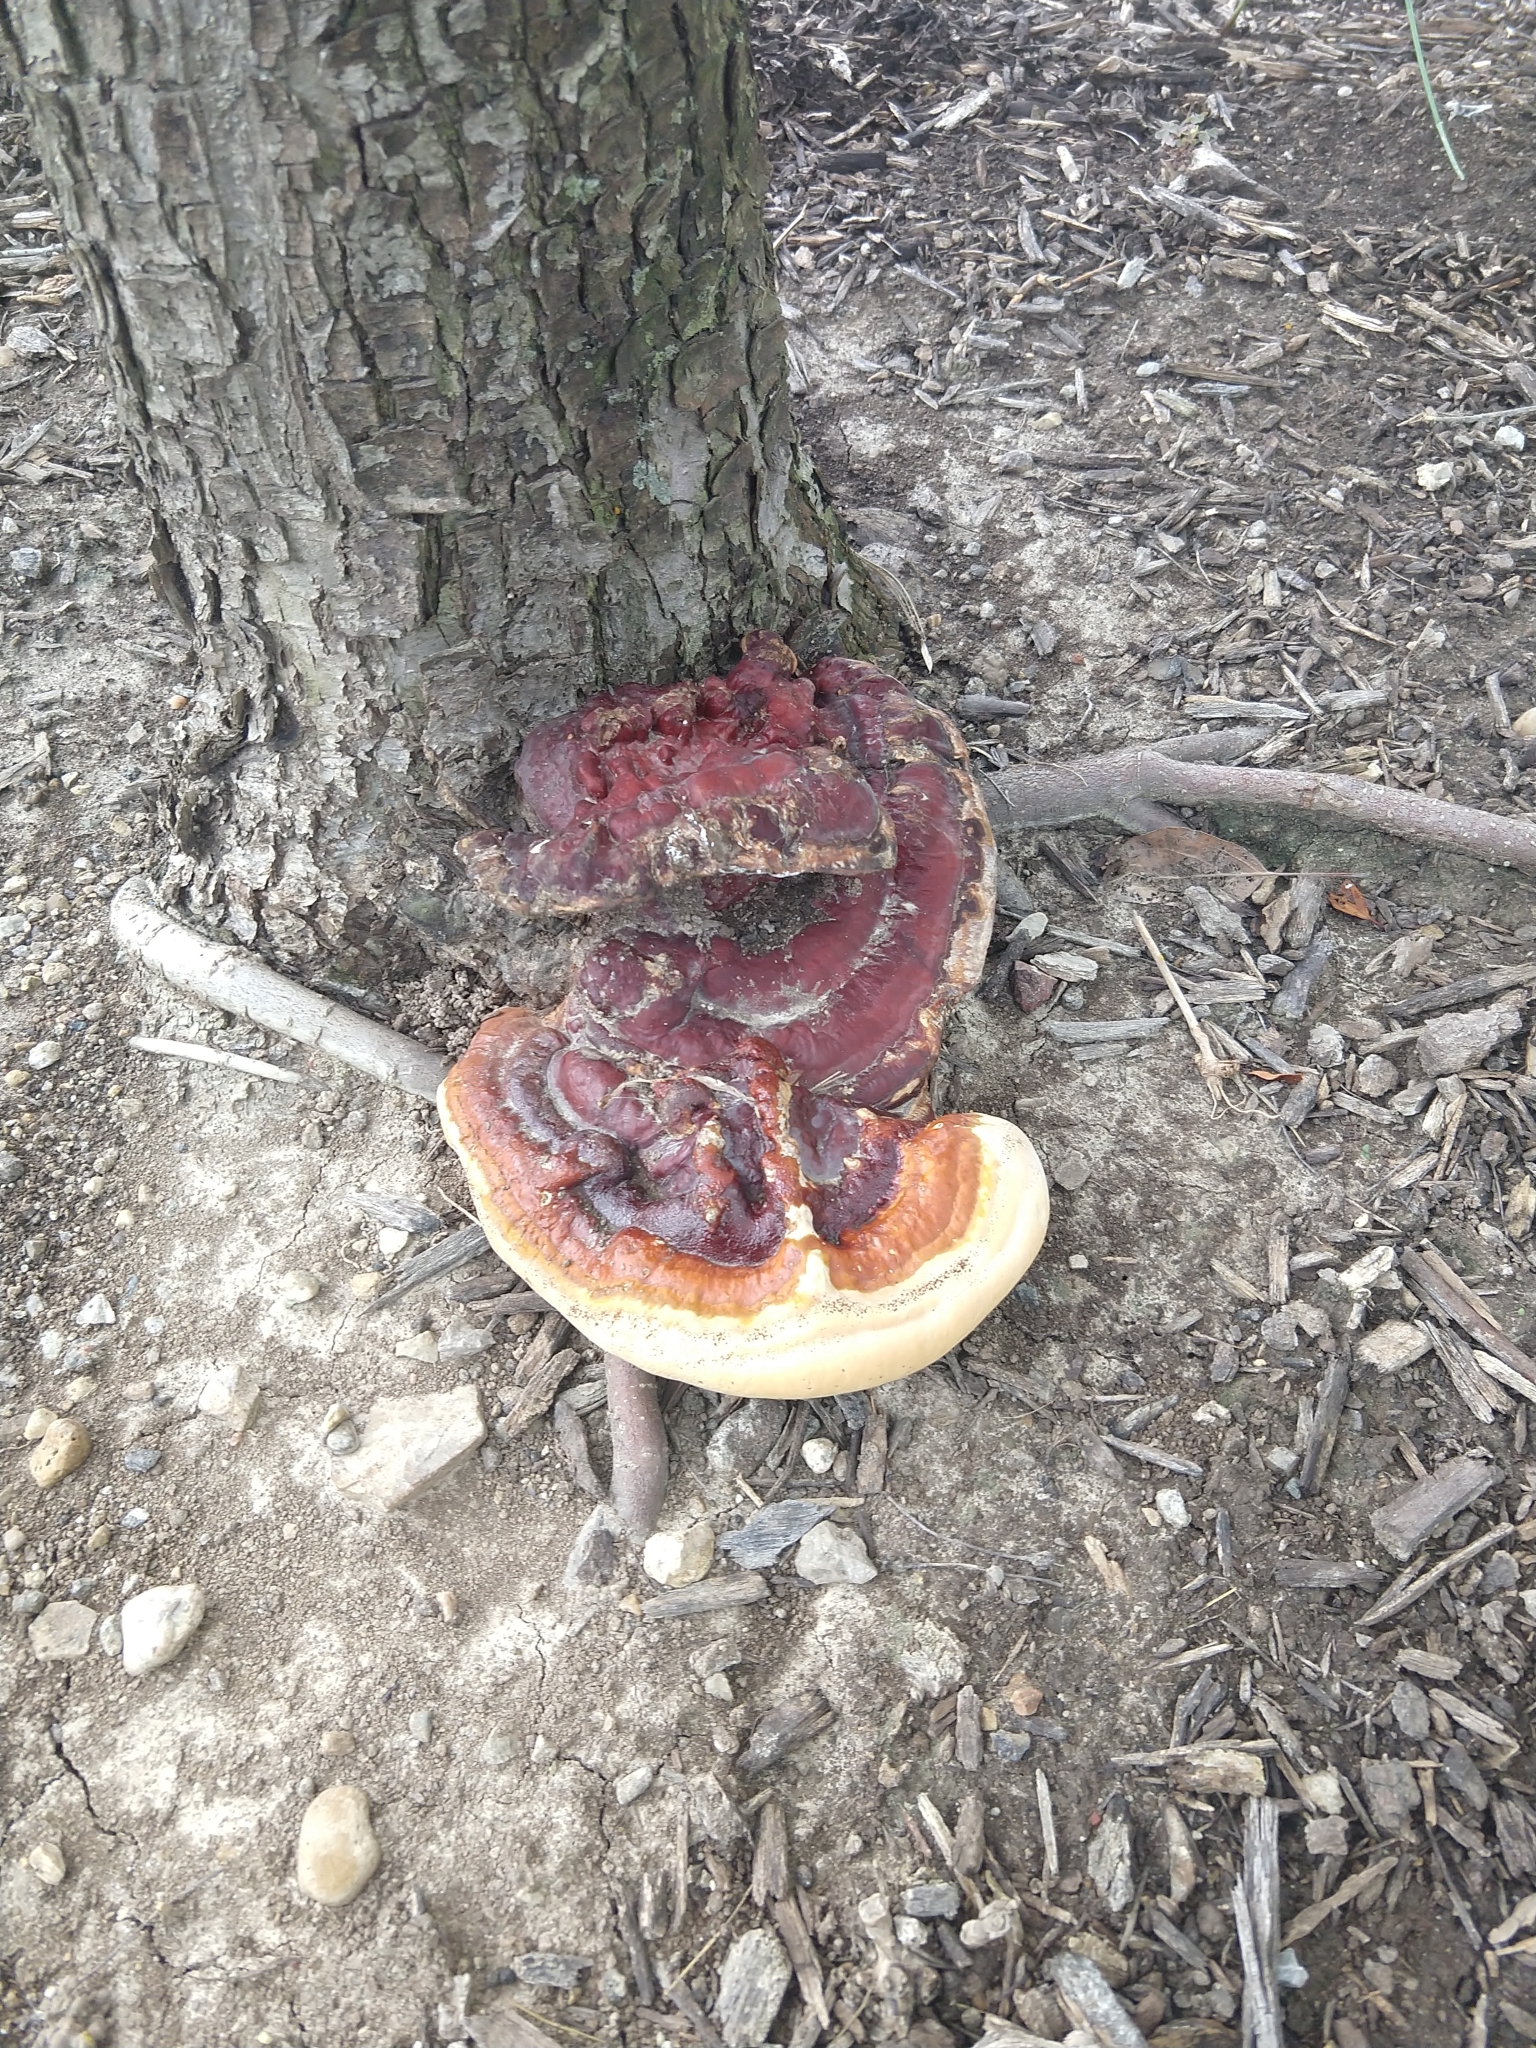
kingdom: Fungi
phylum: Basidiomycota
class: Agaricomycetes
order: Polyporales
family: Polyporaceae
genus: Ganoderma
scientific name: Ganoderma resinaceum
